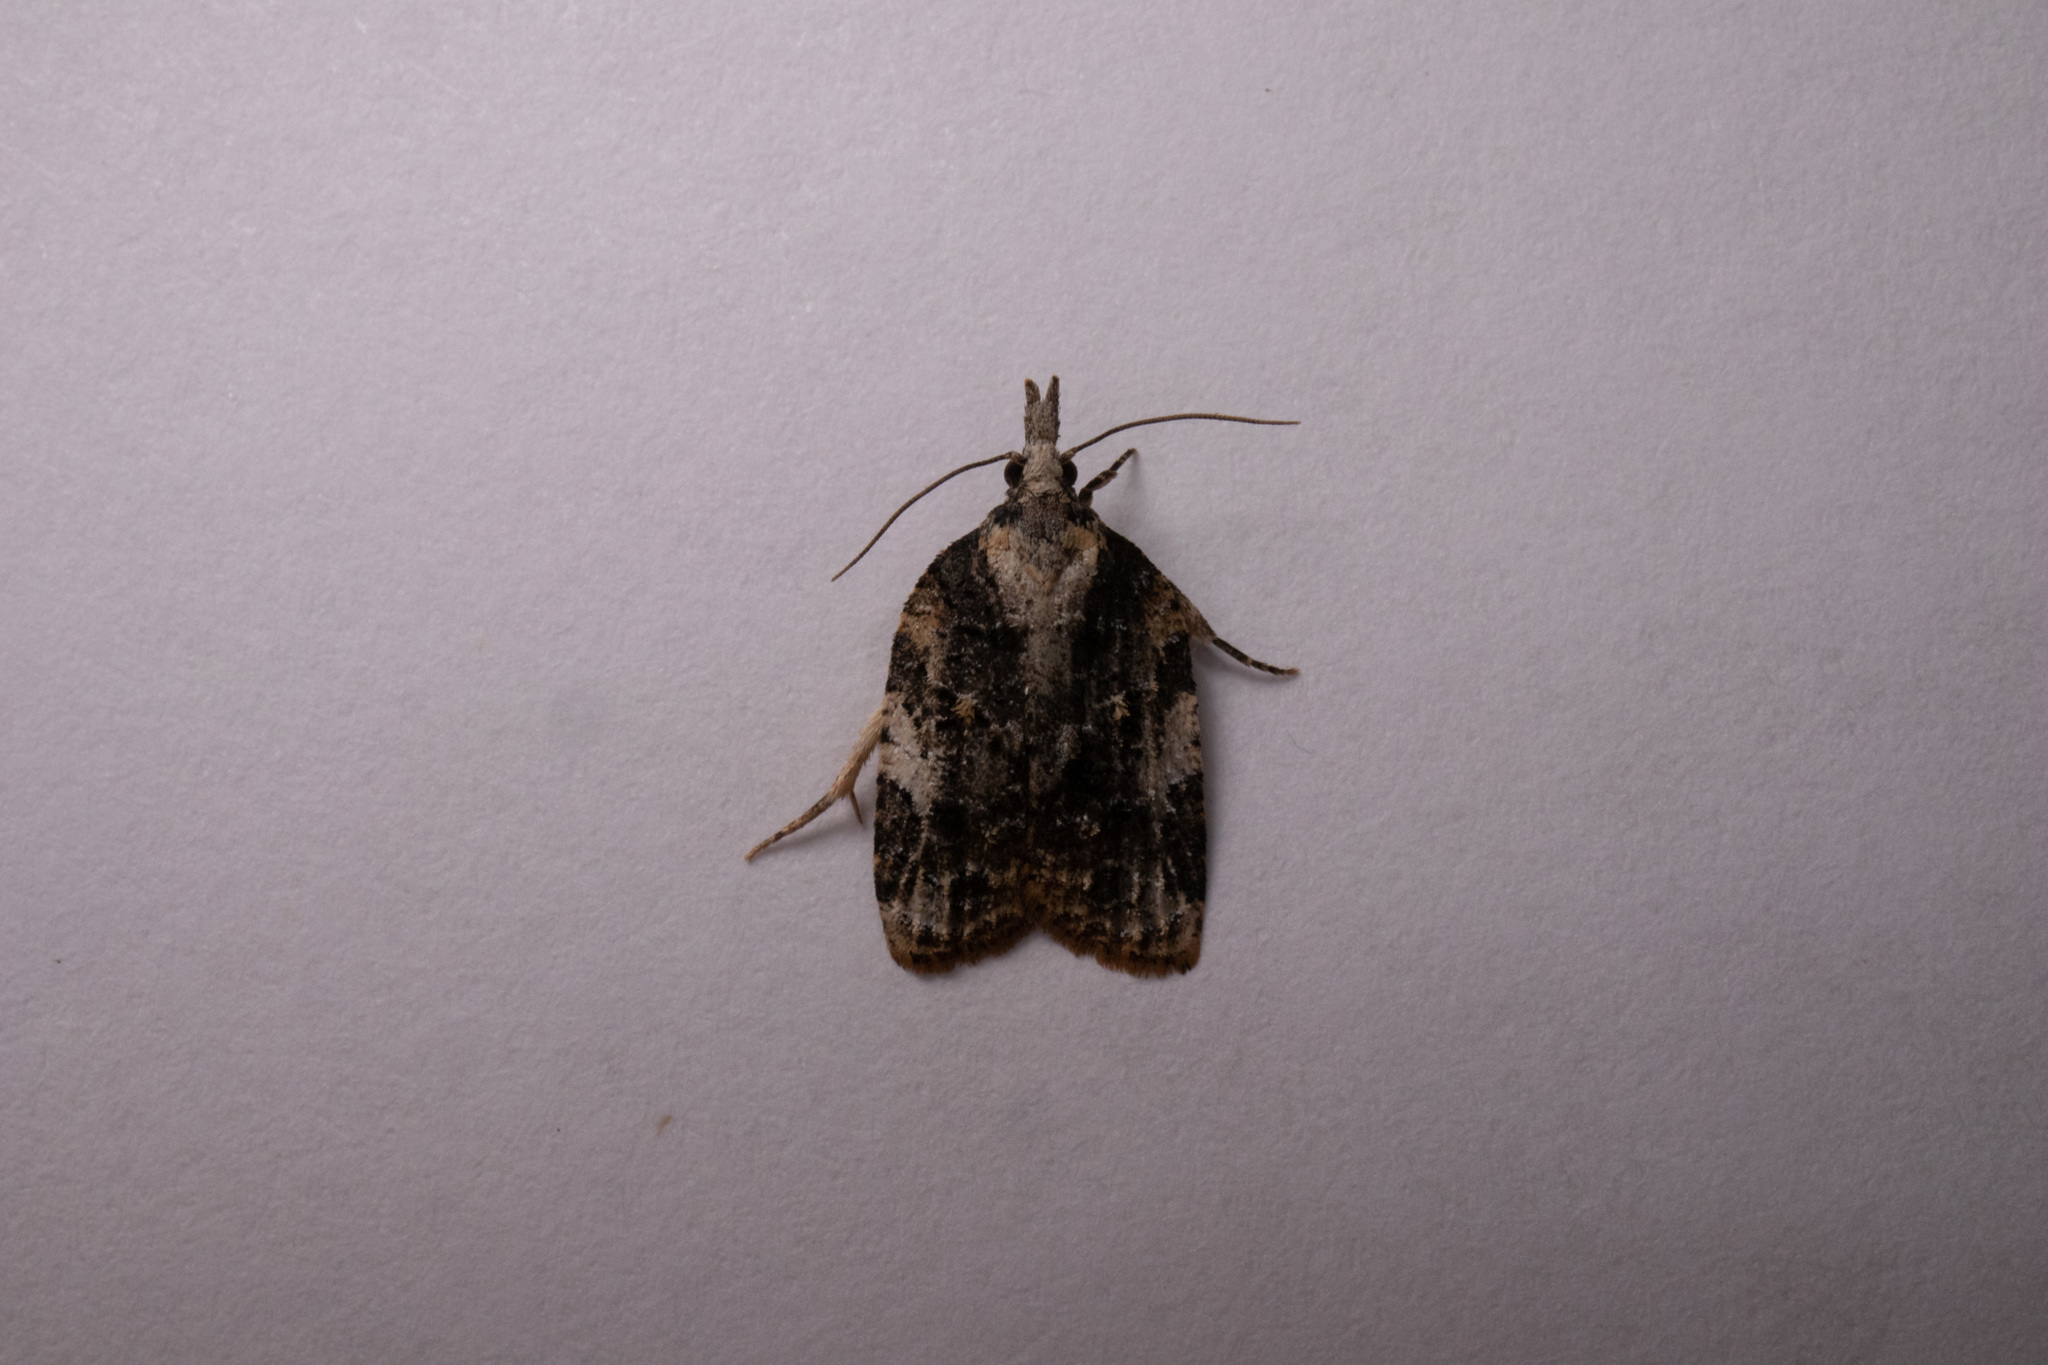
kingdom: Animalia
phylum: Arthropoda
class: Insecta
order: Lepidoptera
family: Tortricidae
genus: Platynota
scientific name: Platynota exasperatana
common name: Exasperating platynota moth
